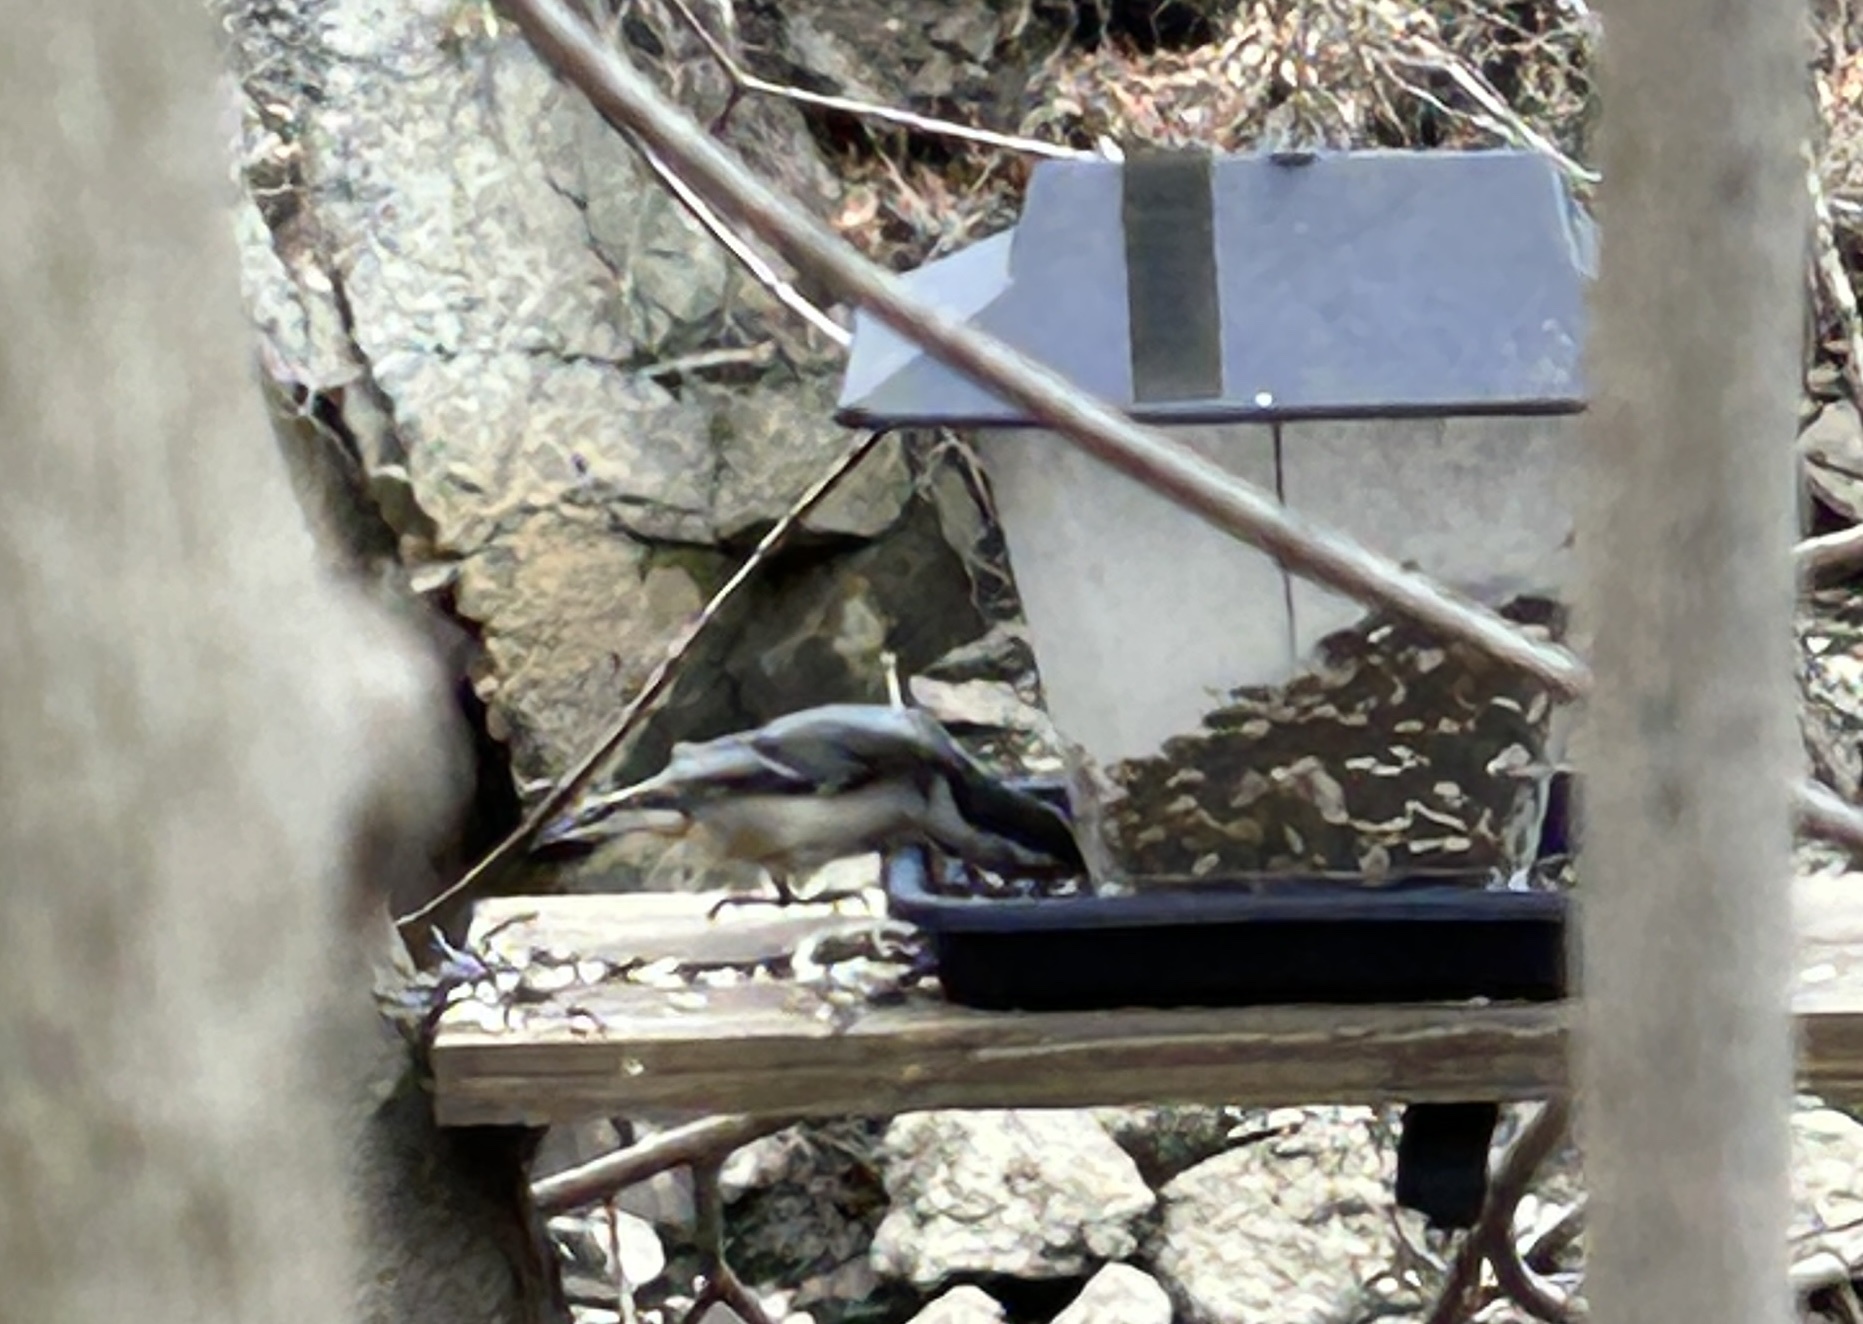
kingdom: Animalia
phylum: Chordata
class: Aves
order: Passeriformes
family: Sittidae
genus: Sitta
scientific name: Sitta carolinensis
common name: White-breasted nuthatch
